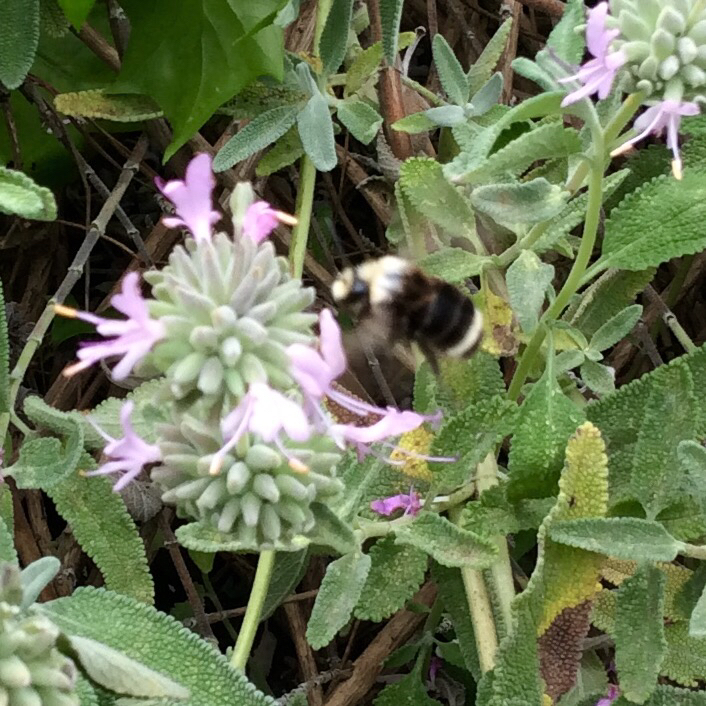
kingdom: Animalia
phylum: Arthropoda
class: Insecta
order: Hymenoptera
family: Apidae
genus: Pyrobombus
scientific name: Pyrobombus
